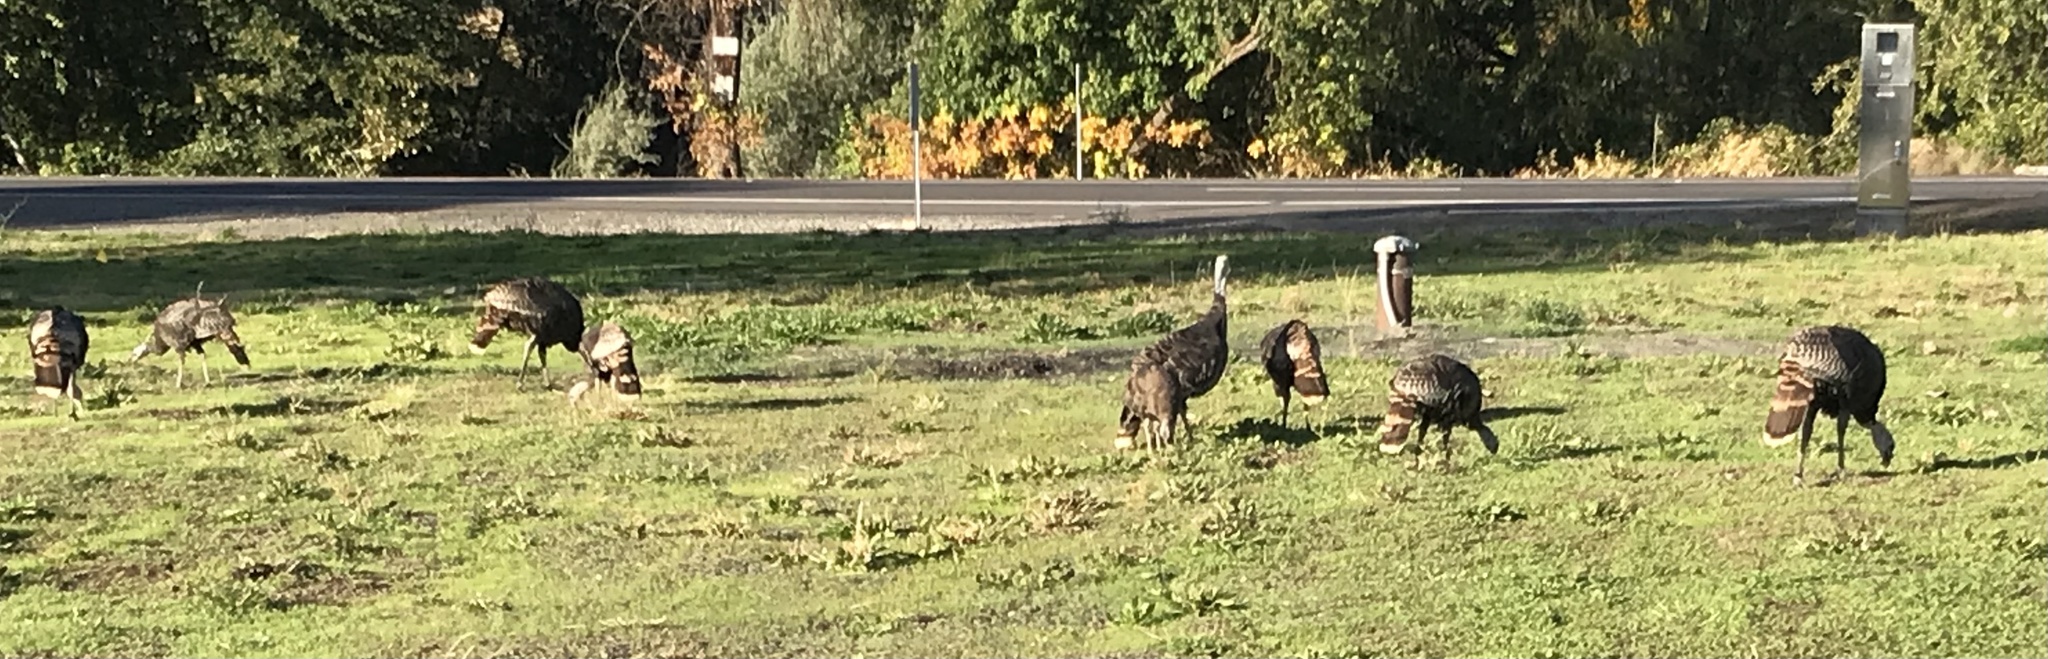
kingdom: Animalia
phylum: Chordata
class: Aves
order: Galliformes
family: Phasianidae
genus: Meleagris
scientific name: Meleagris gallopavo
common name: Wild turkey
